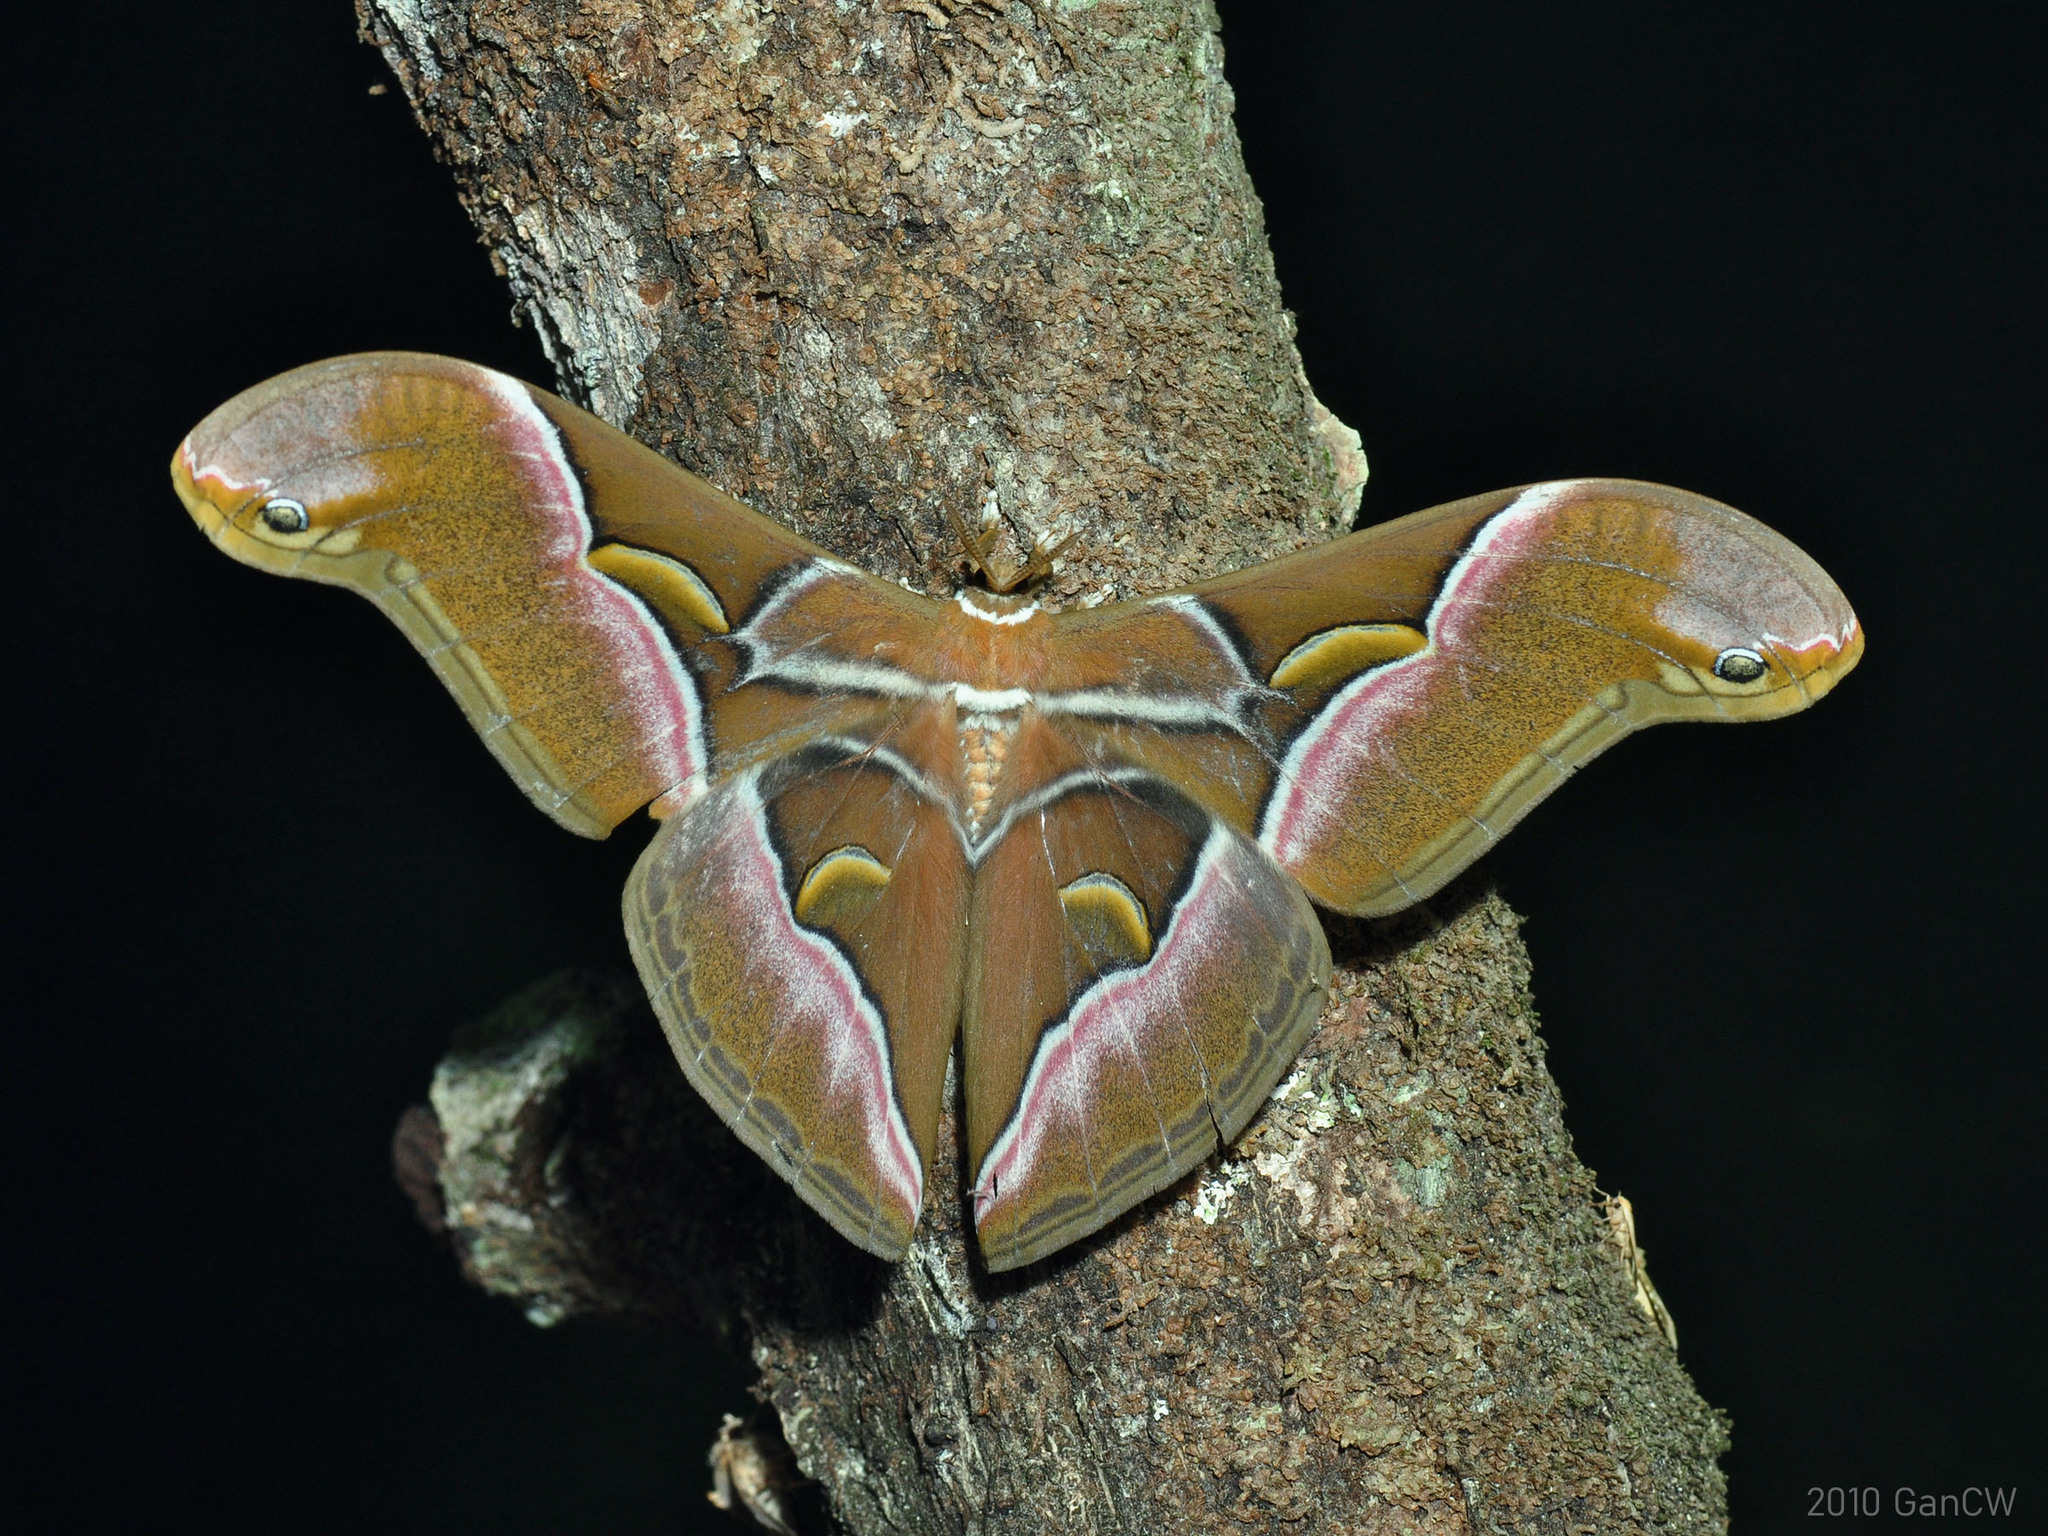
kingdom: Animalia
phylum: Arthropoda
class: Insecta
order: Lepidoptera
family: Saturniidae
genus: Samia
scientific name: Samia kohlli
